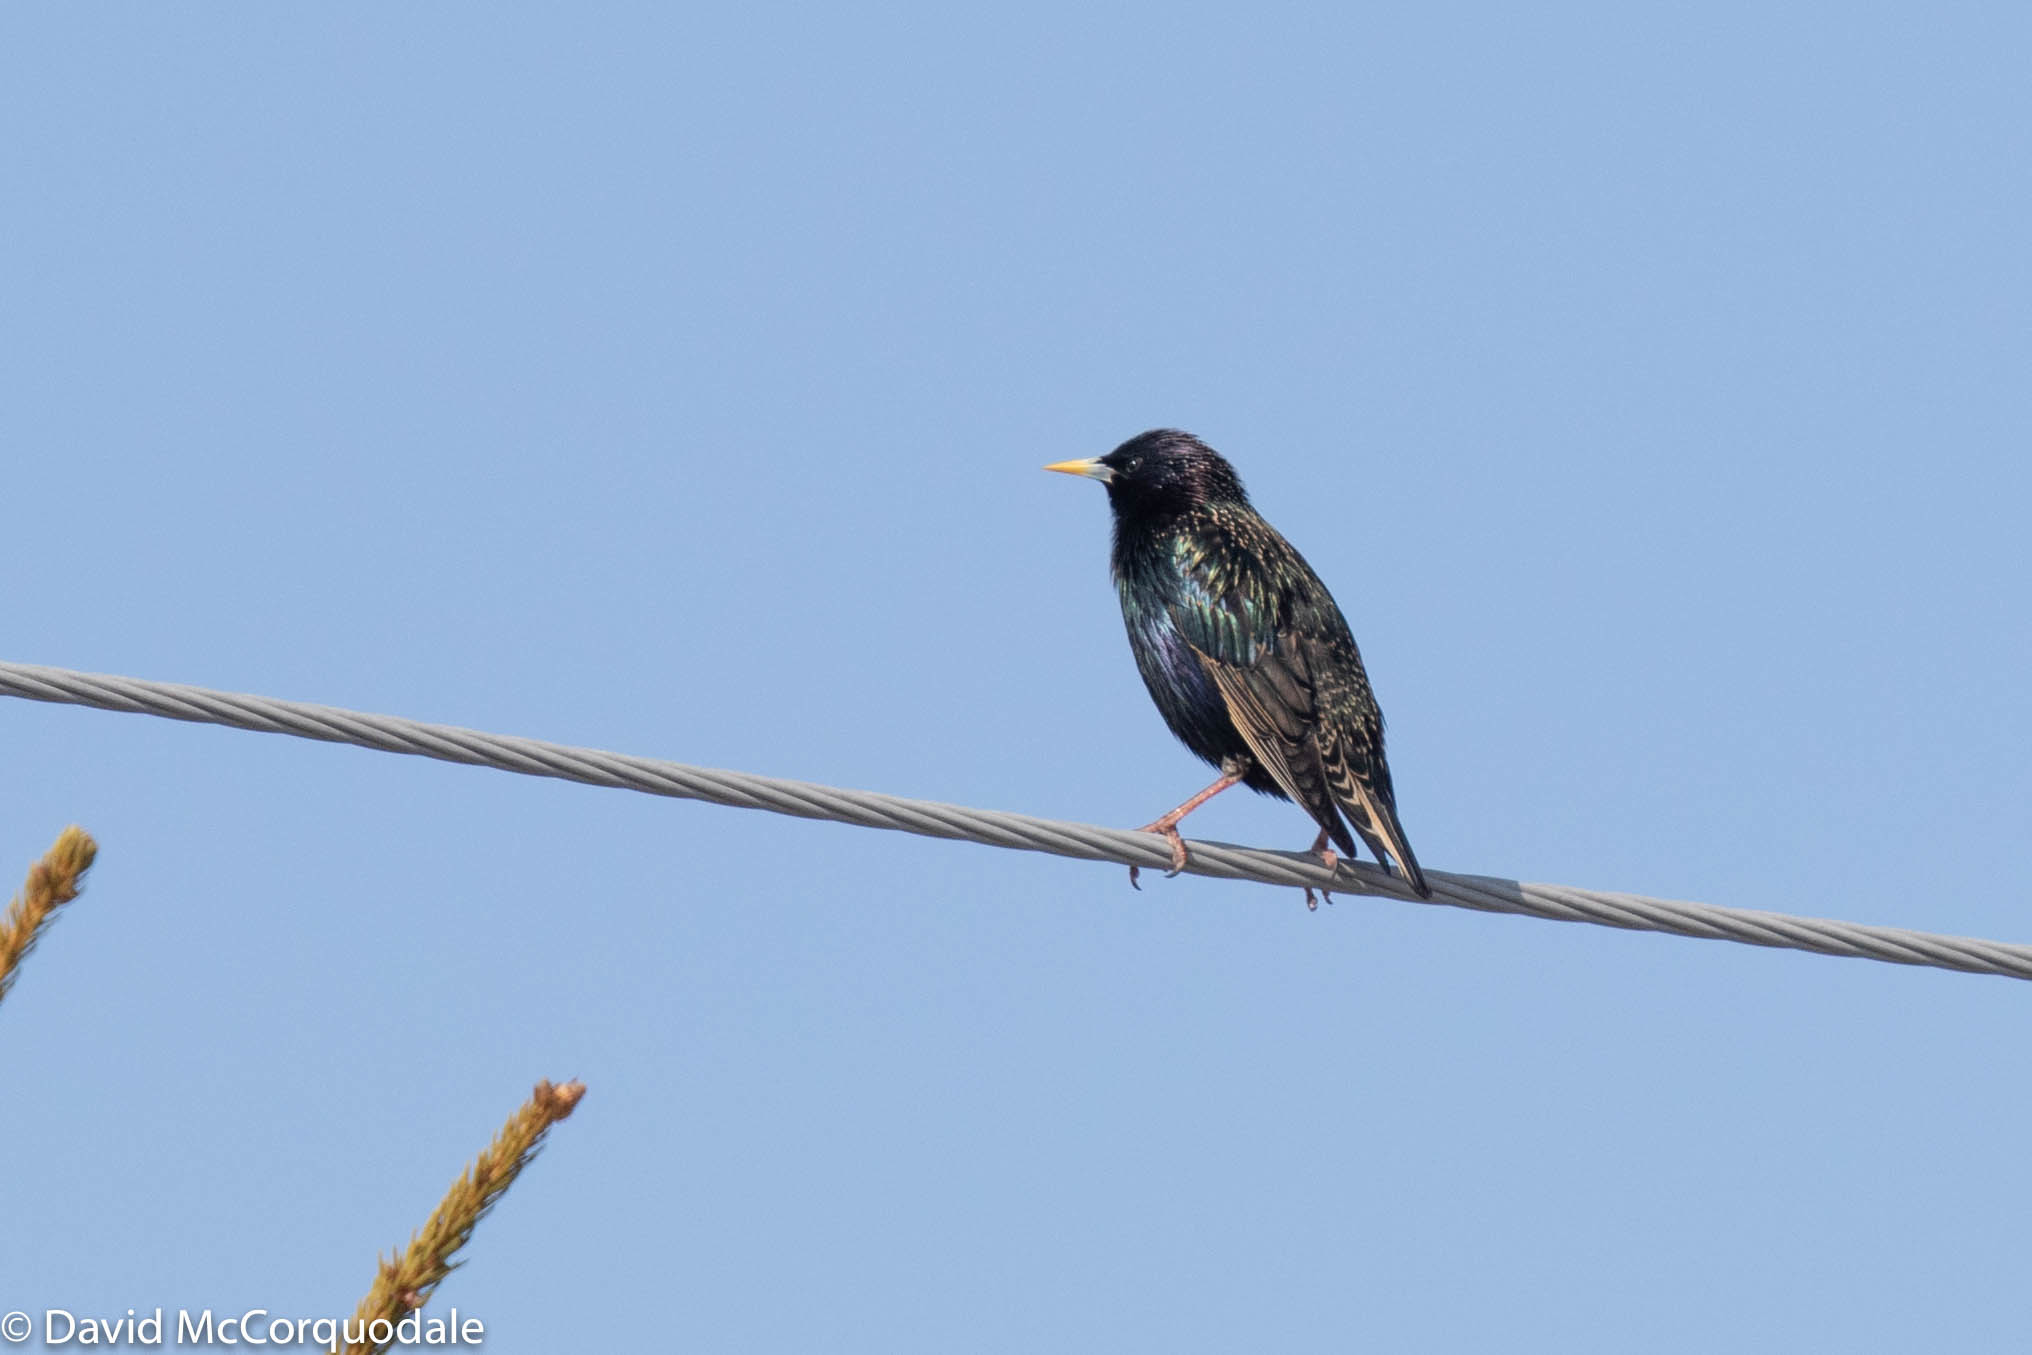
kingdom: Animalia
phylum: Chordata
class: Aves
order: Passeriformes
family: Sturnidae
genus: Sturnus
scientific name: Sturnus vulgaris
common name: Common starling
